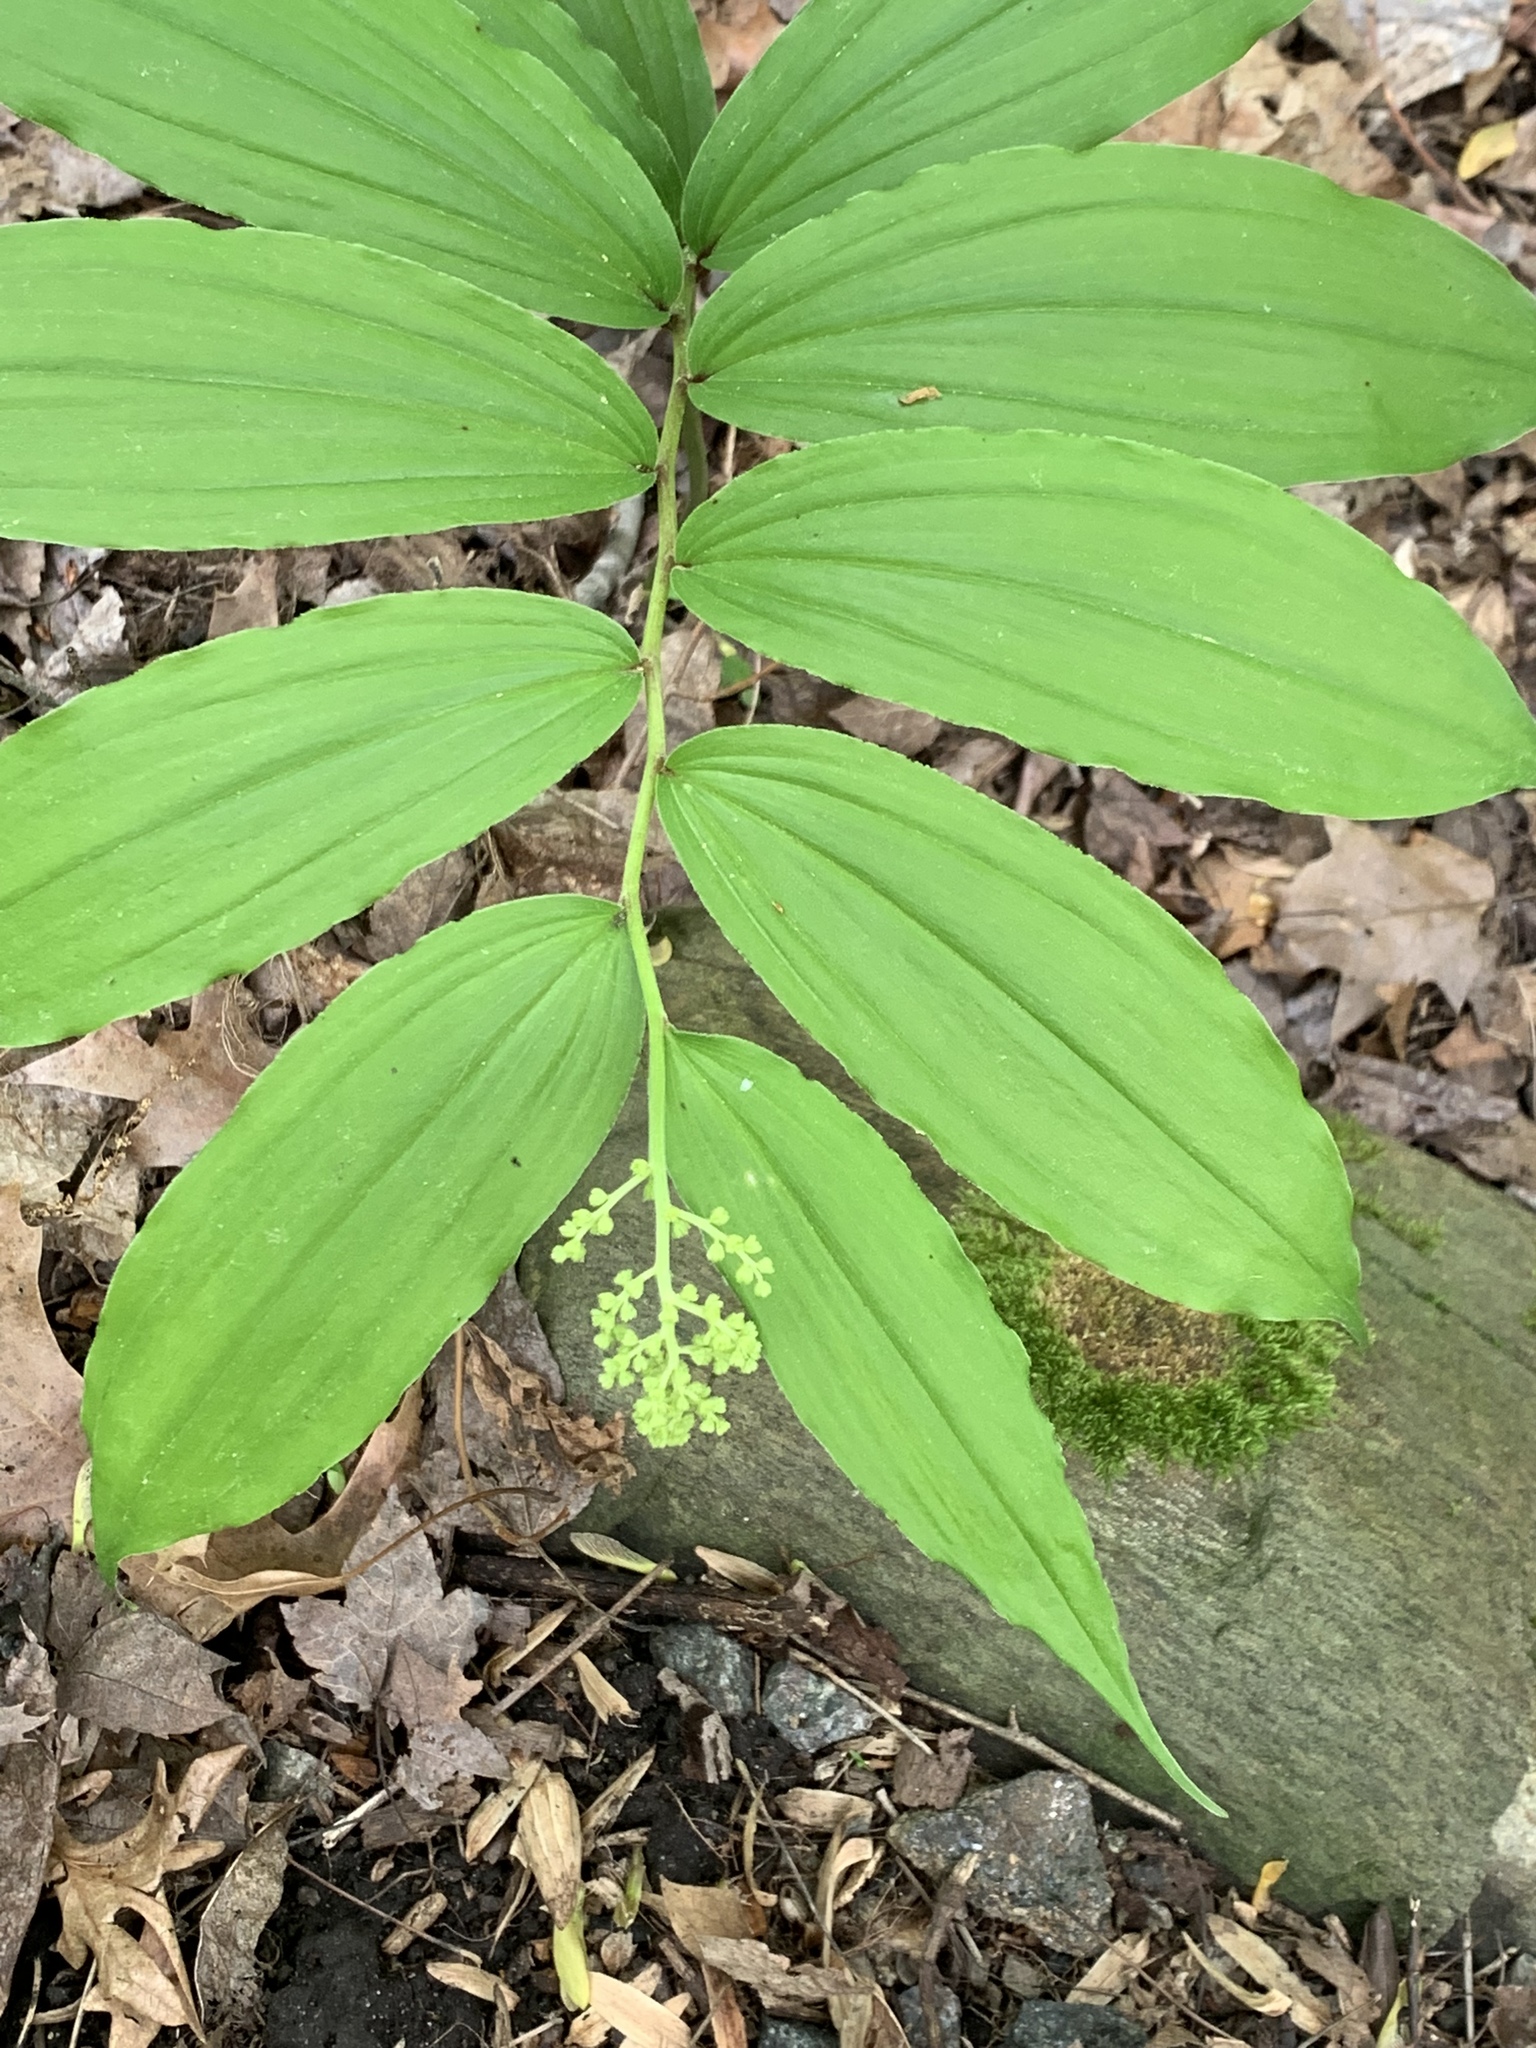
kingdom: Plantae
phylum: Tracheophyta
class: Liliopsida
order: Asparagales
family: Asparagaceae
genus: Maianthemum
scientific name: Maianthemum racemosum
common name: False spikenard
